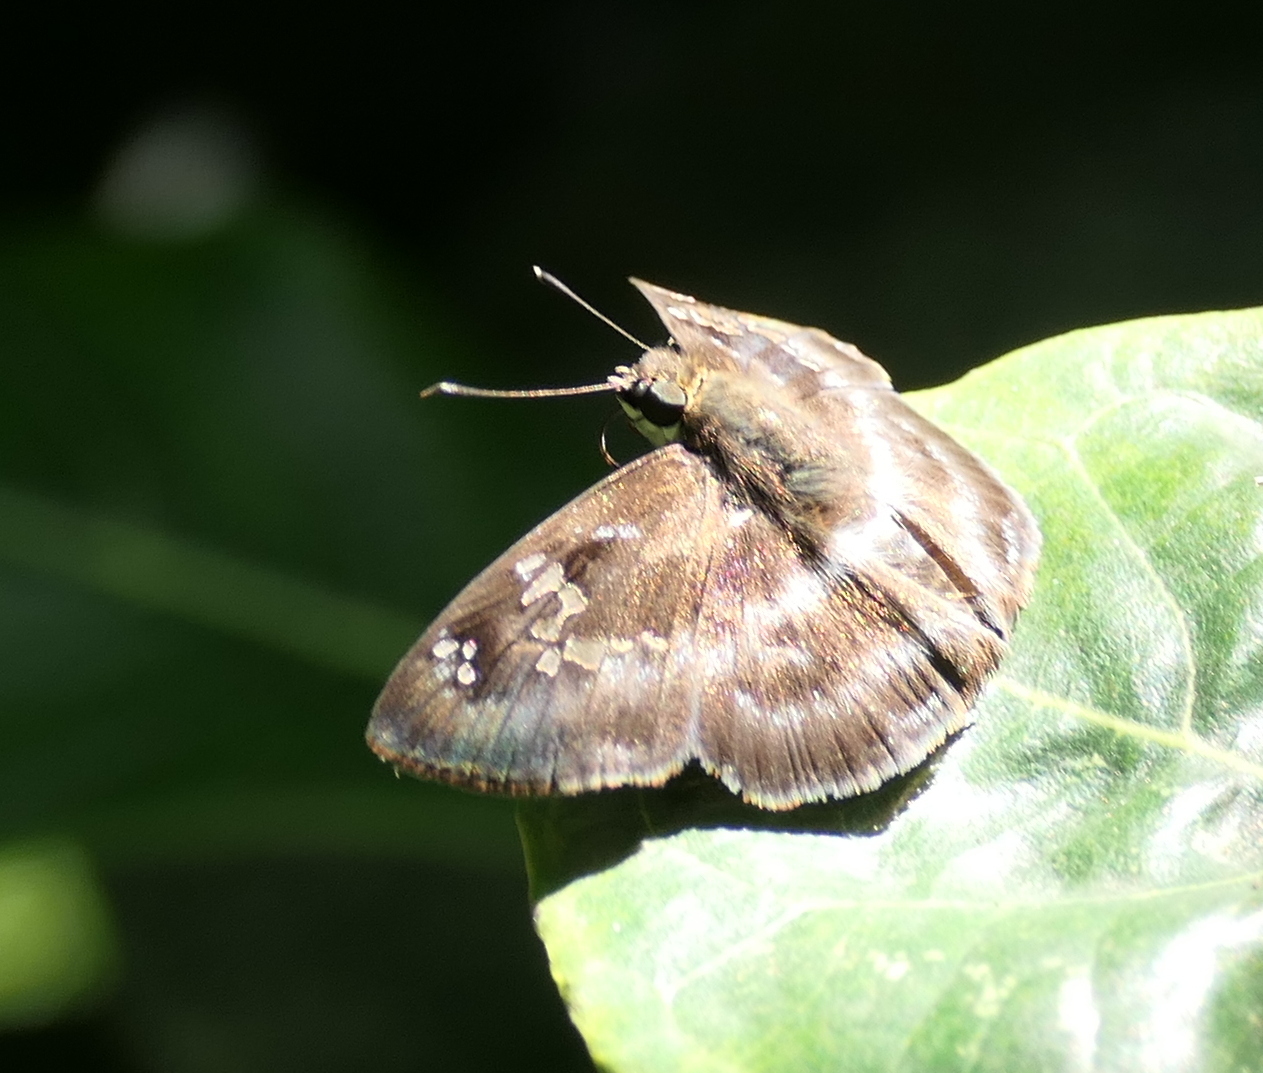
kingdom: Animalia
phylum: Arthropoda
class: Insecta
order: Lepidoptera
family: Hesperiidae
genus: Quadrus
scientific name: Quadrus cerialis
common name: Common blue-skipper
